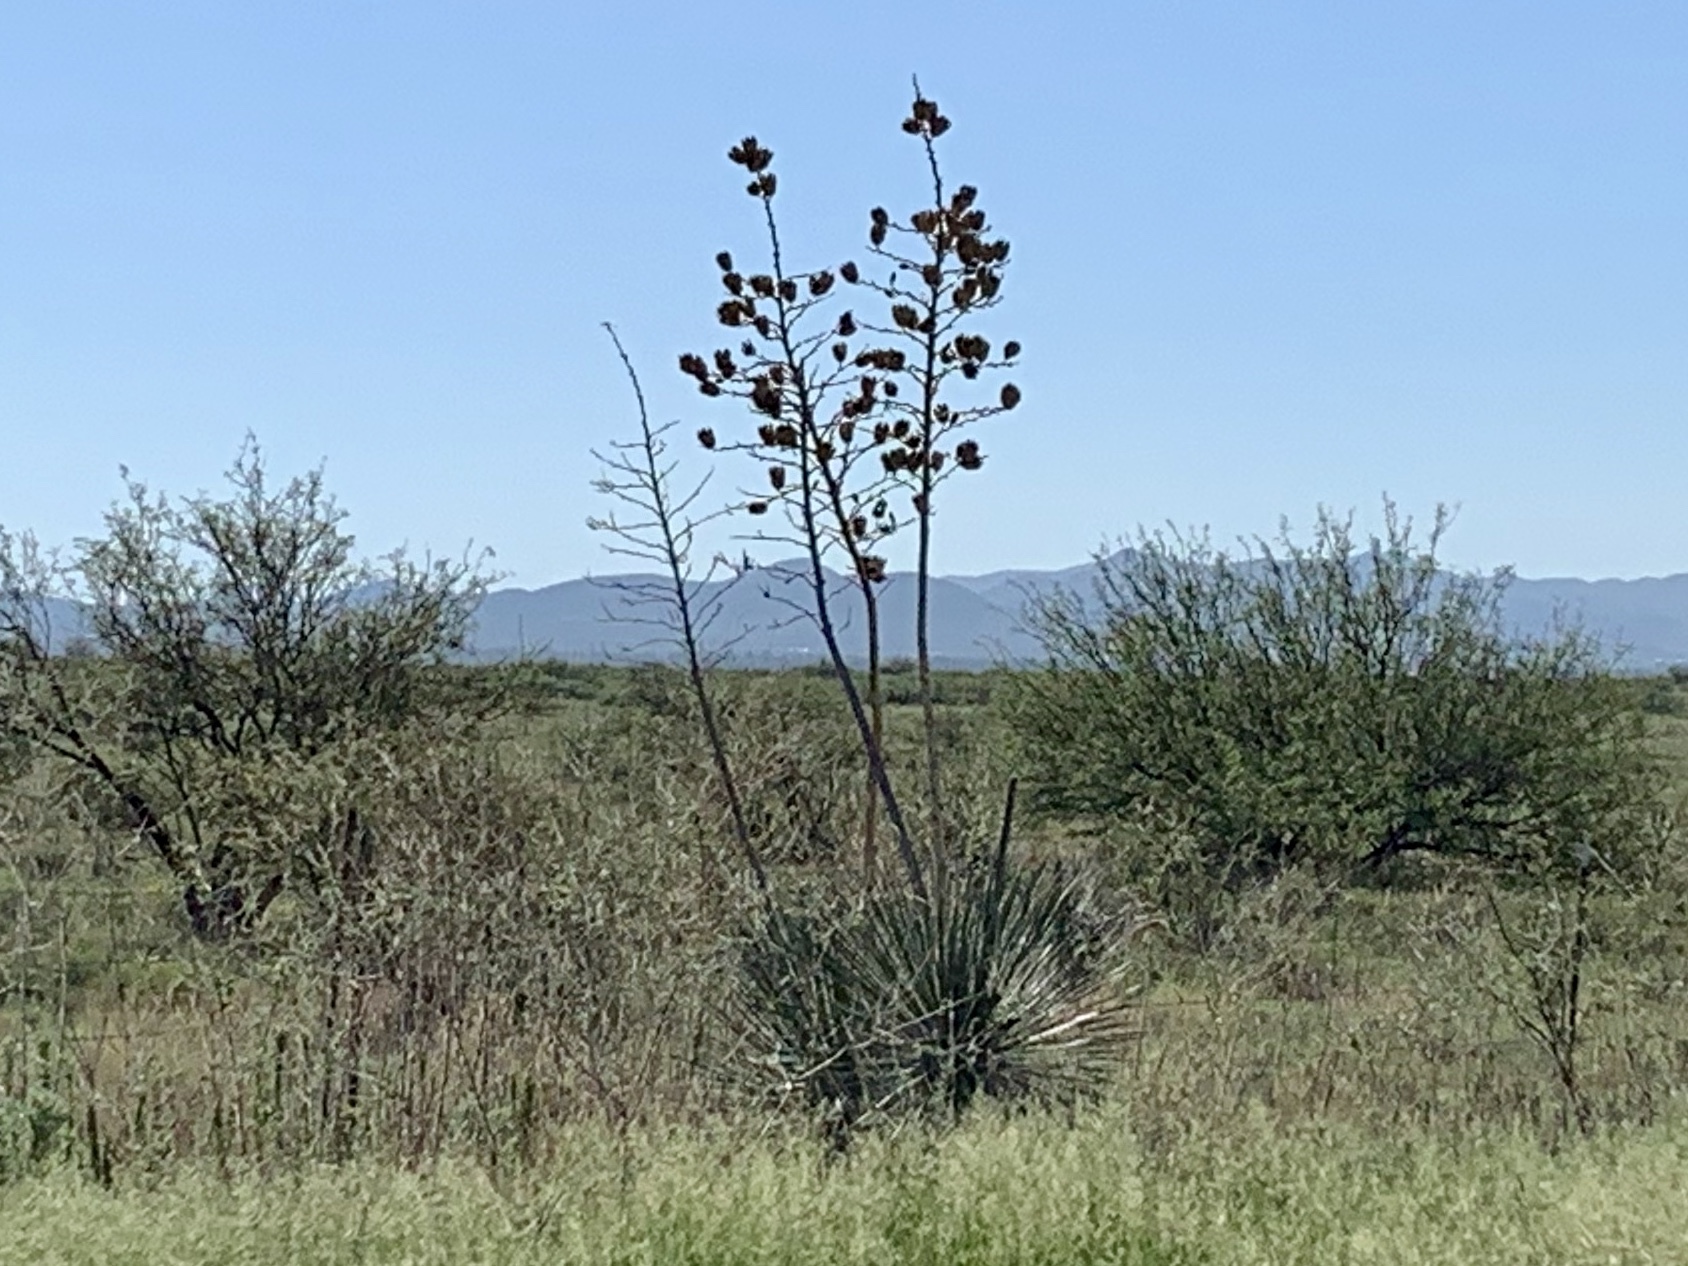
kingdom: Plantae
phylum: Tracheophyta
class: Liliopsida
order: Asparagales
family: Asparagaceae
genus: Yucca
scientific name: Yucca elata
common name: Palmella
